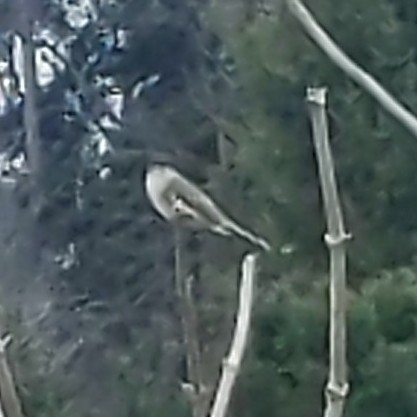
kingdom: Animalia
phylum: Chordata
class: Aves
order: Passeriformes
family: Tyrannidae
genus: Sayornis
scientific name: Sayornis phoebe
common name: Eastern phoebe
